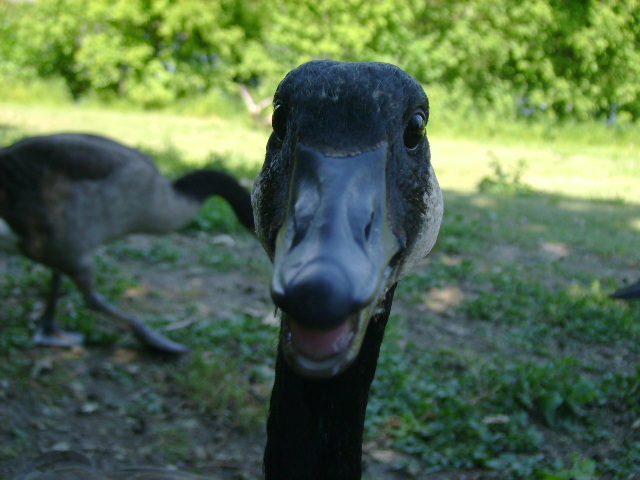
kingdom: Animalia
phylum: Chordata
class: Aves
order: Anseriformes
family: Anatidae
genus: Branta
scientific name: Branta canadensis
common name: Canada goose
